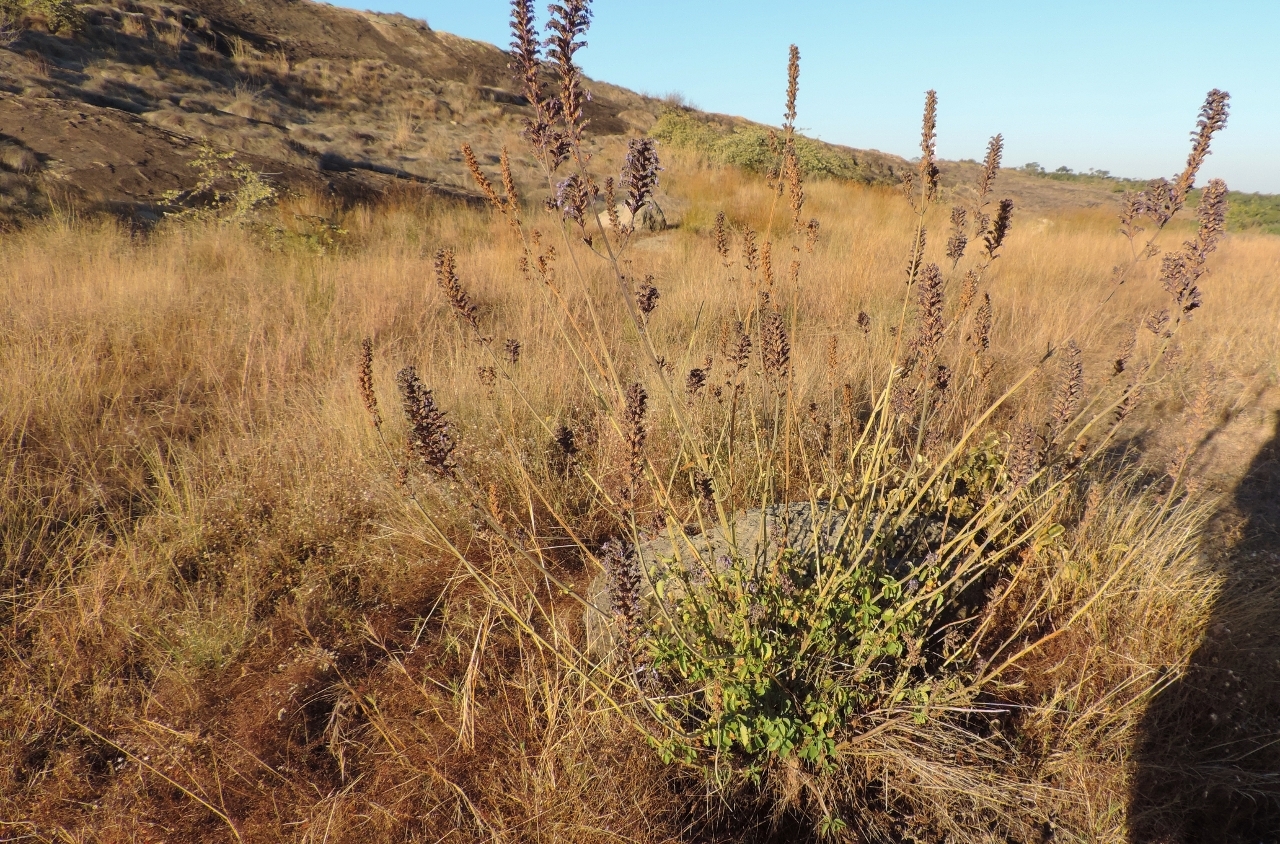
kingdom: Plantae
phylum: Tracheophyta
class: Magnoliopsida
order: Lamiales
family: Lamiaceae
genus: Coleus
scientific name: Coleus hereroensis
